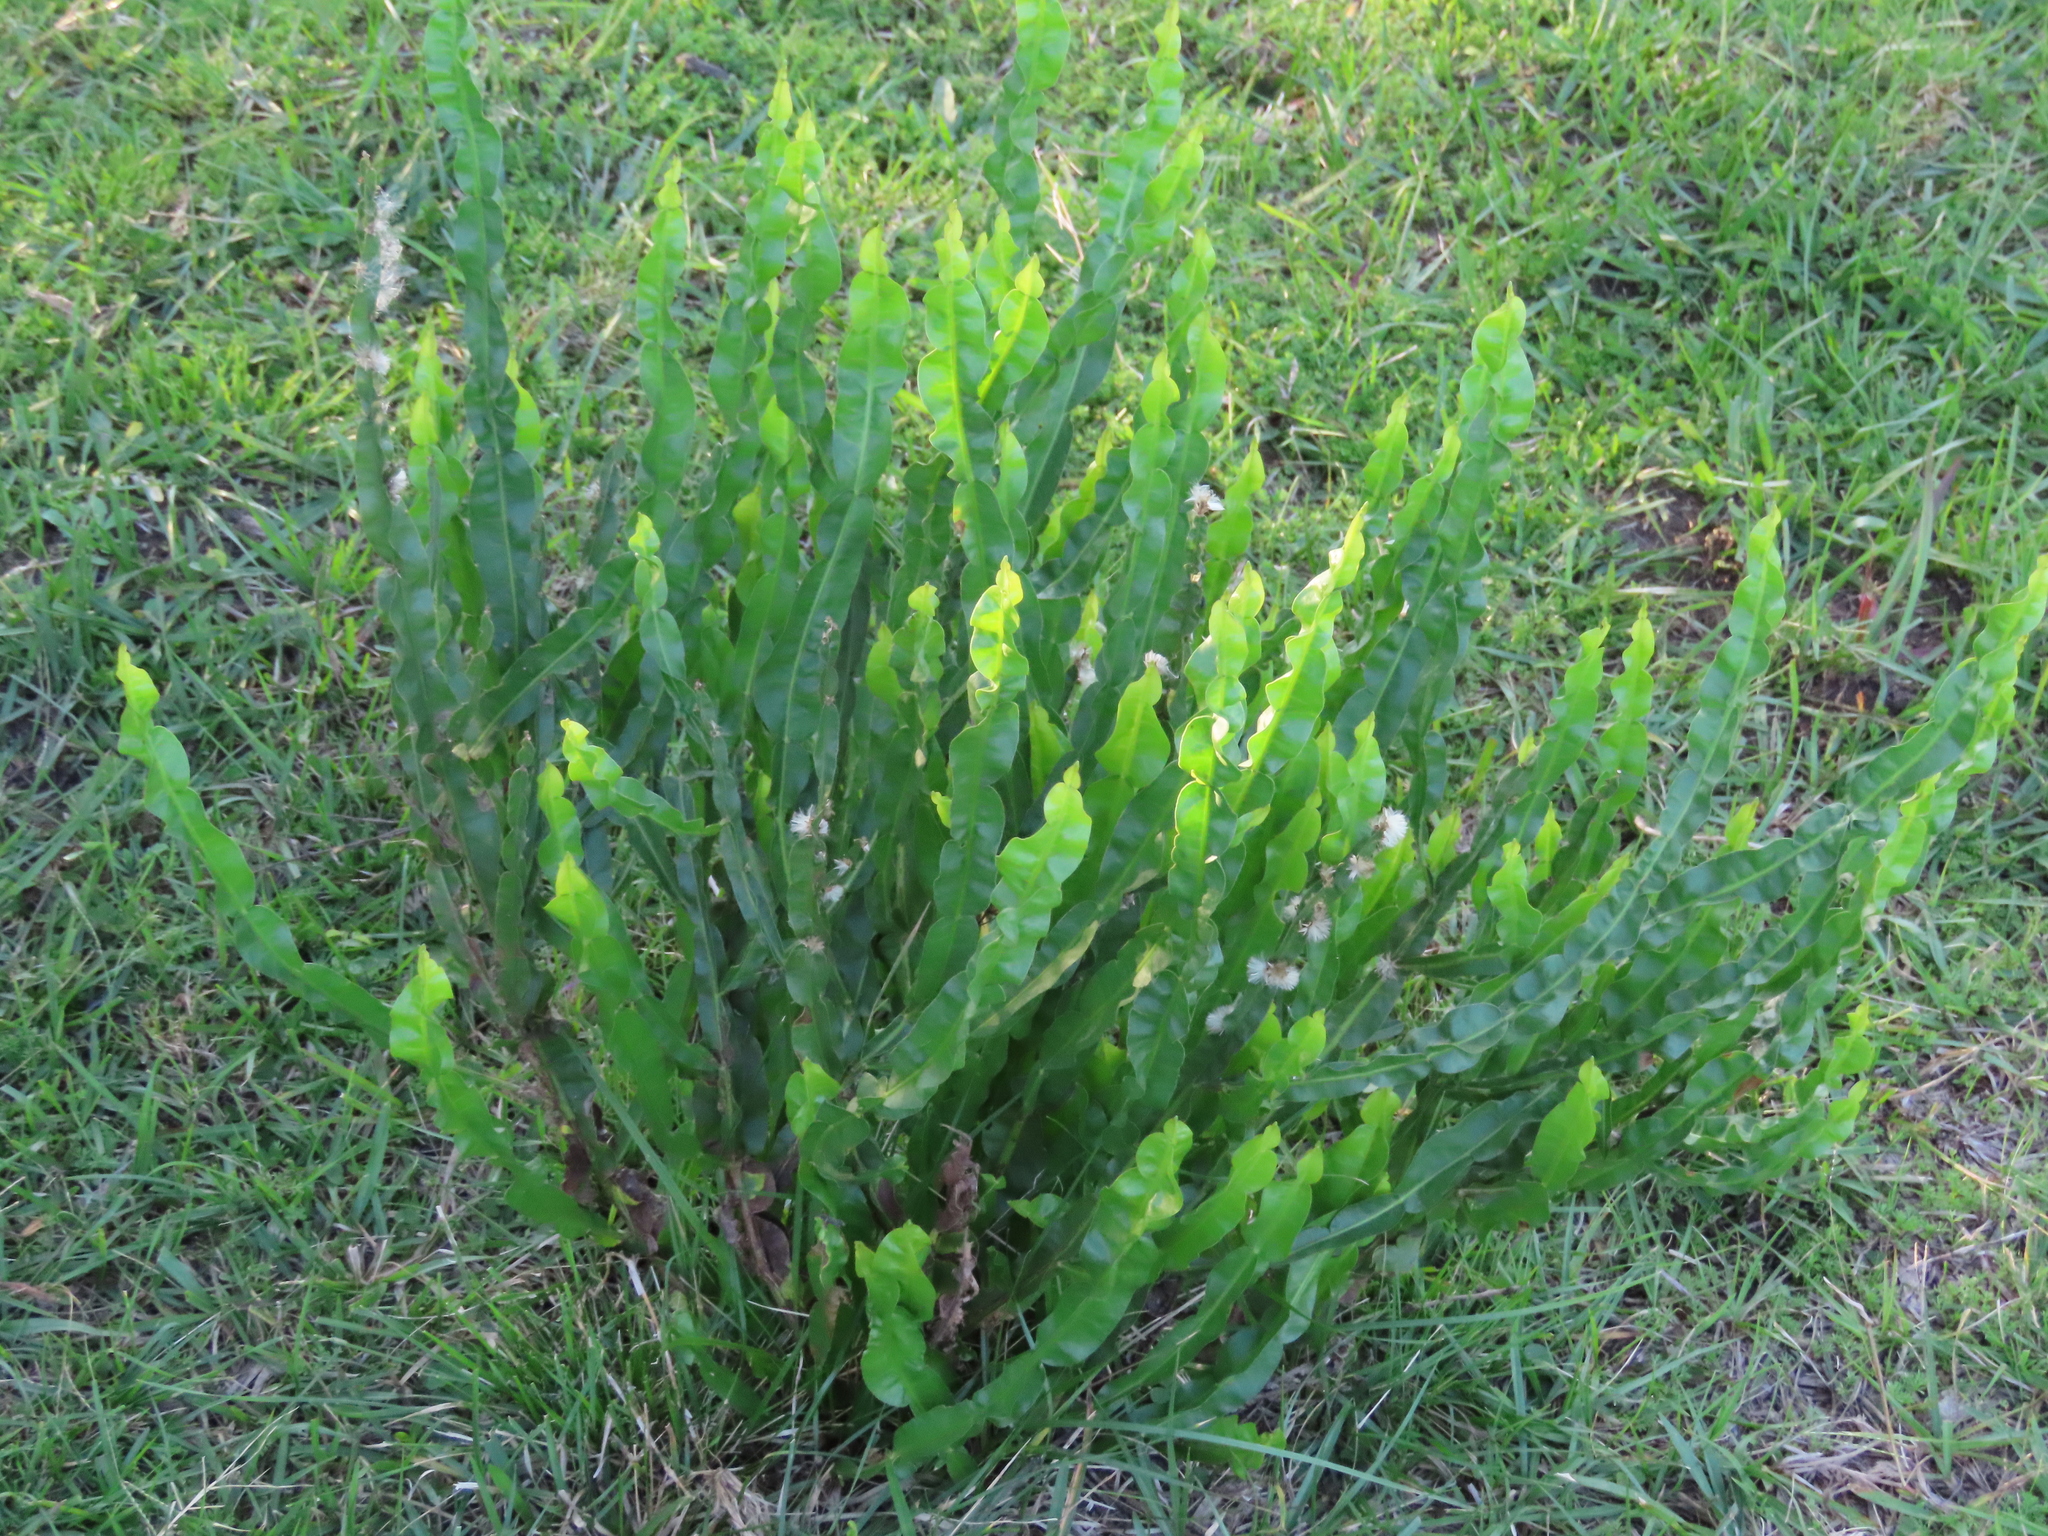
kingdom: Plantae
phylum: Tracheophyta
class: Magnoliopsida
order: Asterales
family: Asteraceae
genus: Baccharis
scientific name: Baccharis trimera
